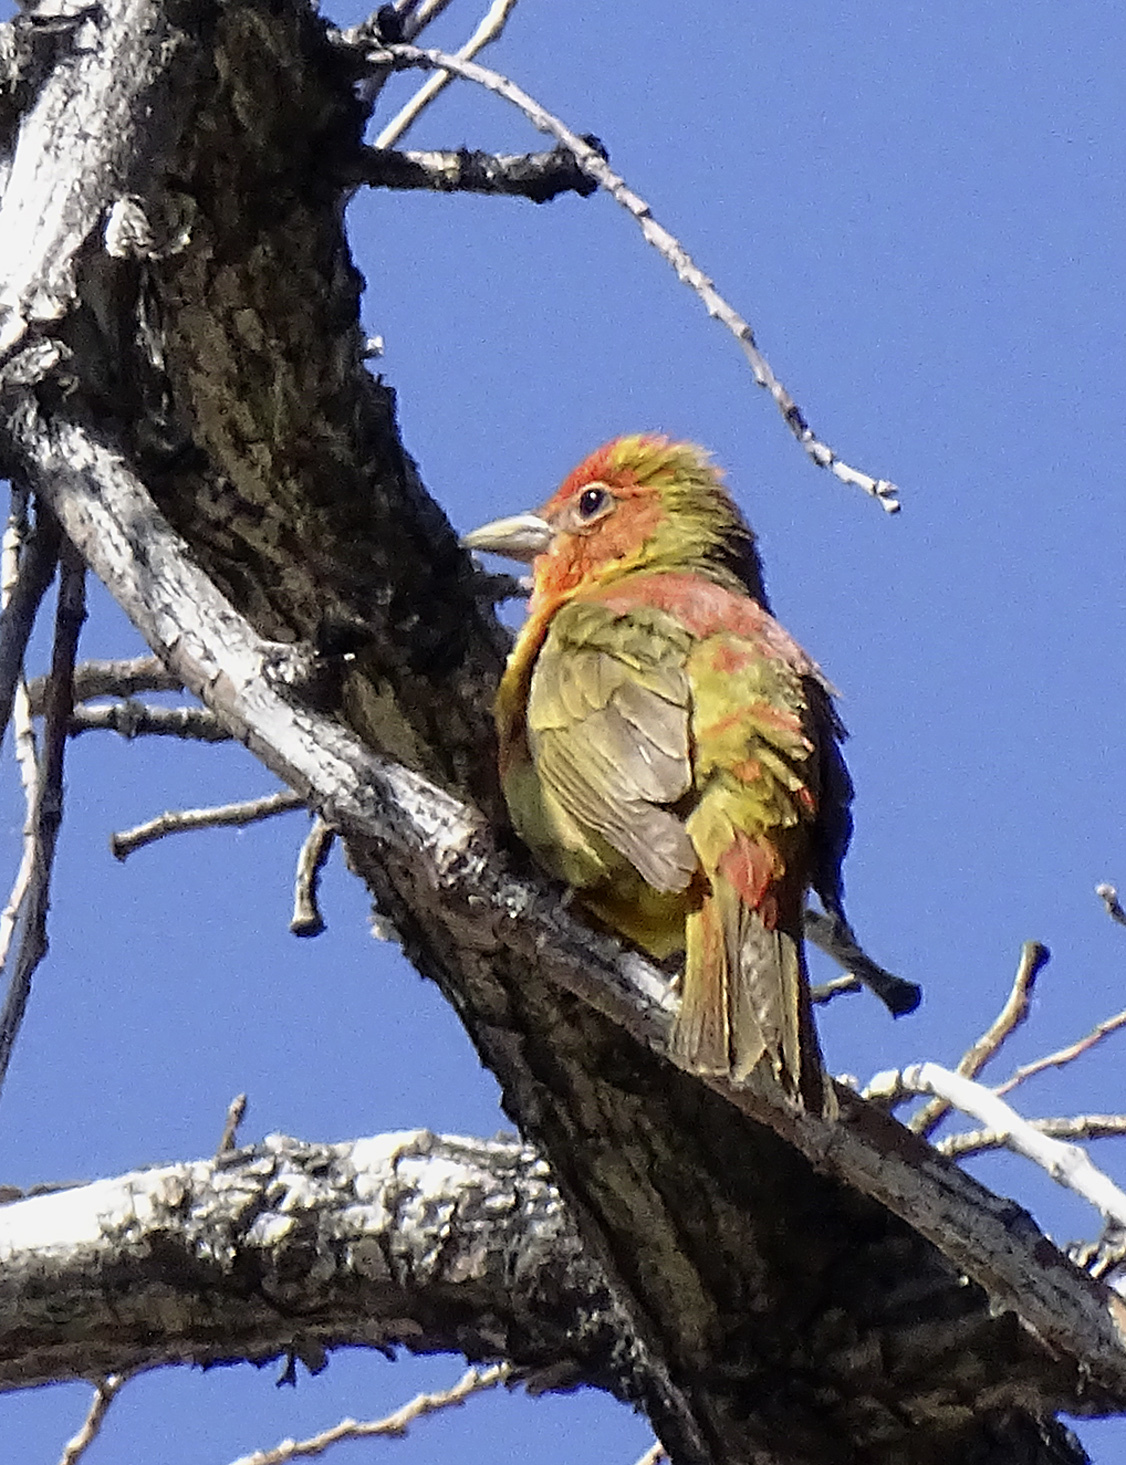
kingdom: Animalia
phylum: Chordata
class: Aves
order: Passeriformes
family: Cardinalidae
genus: Piranga
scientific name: Piranga rubra
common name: Summer tanager
